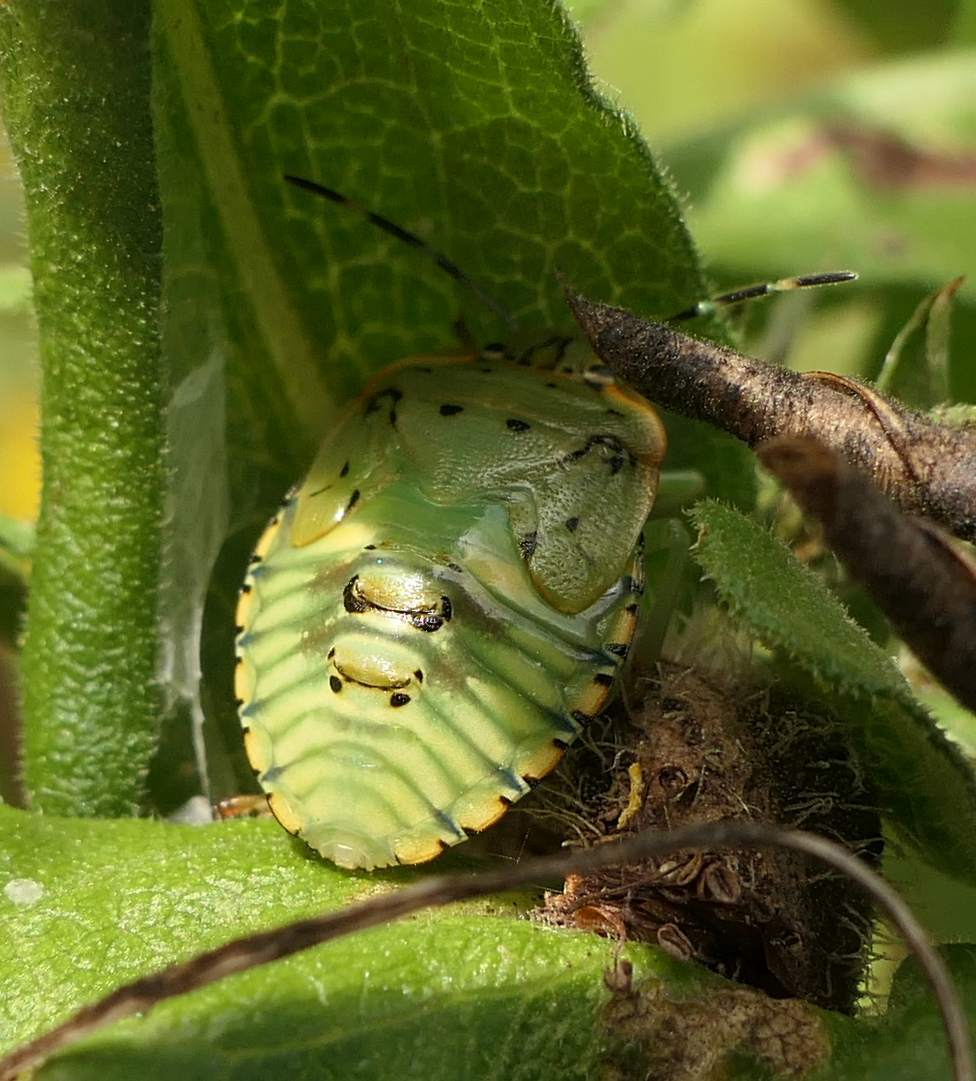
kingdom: Animalia
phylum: Arthropoda
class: Insecta
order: Hemiptera
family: Pentatomidae
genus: Chinavia
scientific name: Chinavia hilaris
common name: Green stink bug
